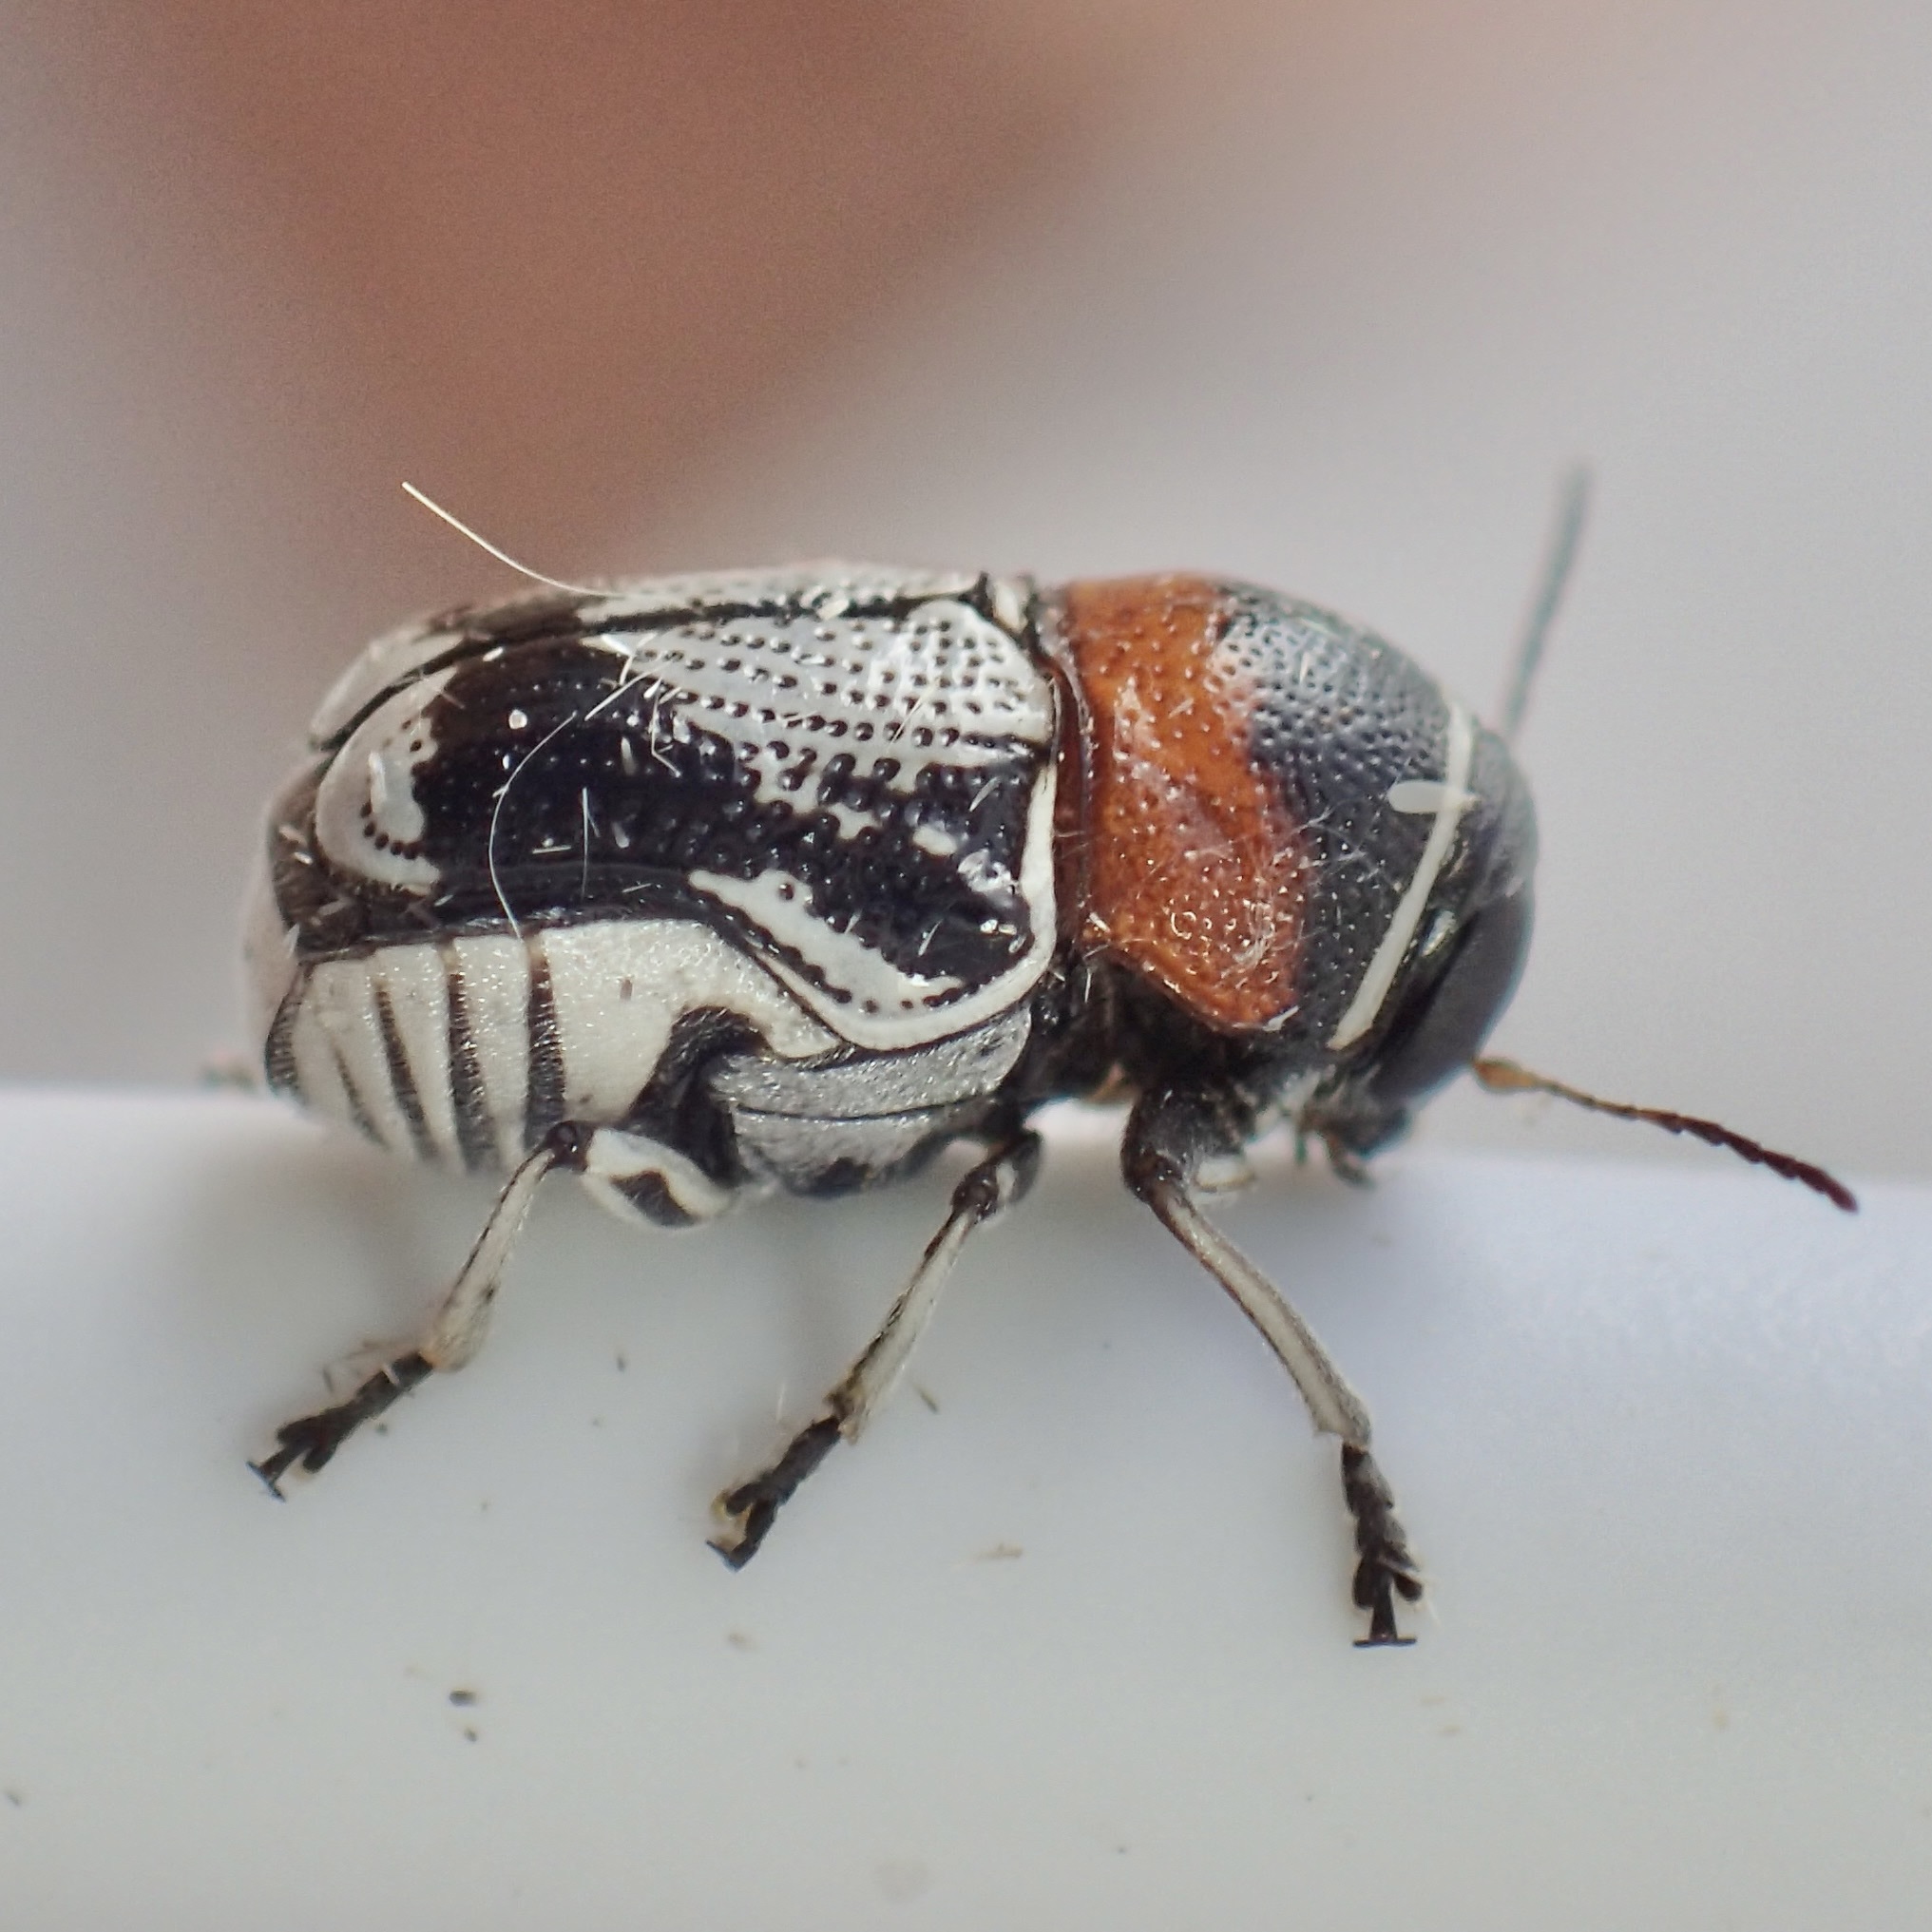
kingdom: Animalia
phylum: Arthropoda
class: Insecta
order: Coleoptera
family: Chrysomelidae
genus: Griburius
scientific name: Griburius montezuma
